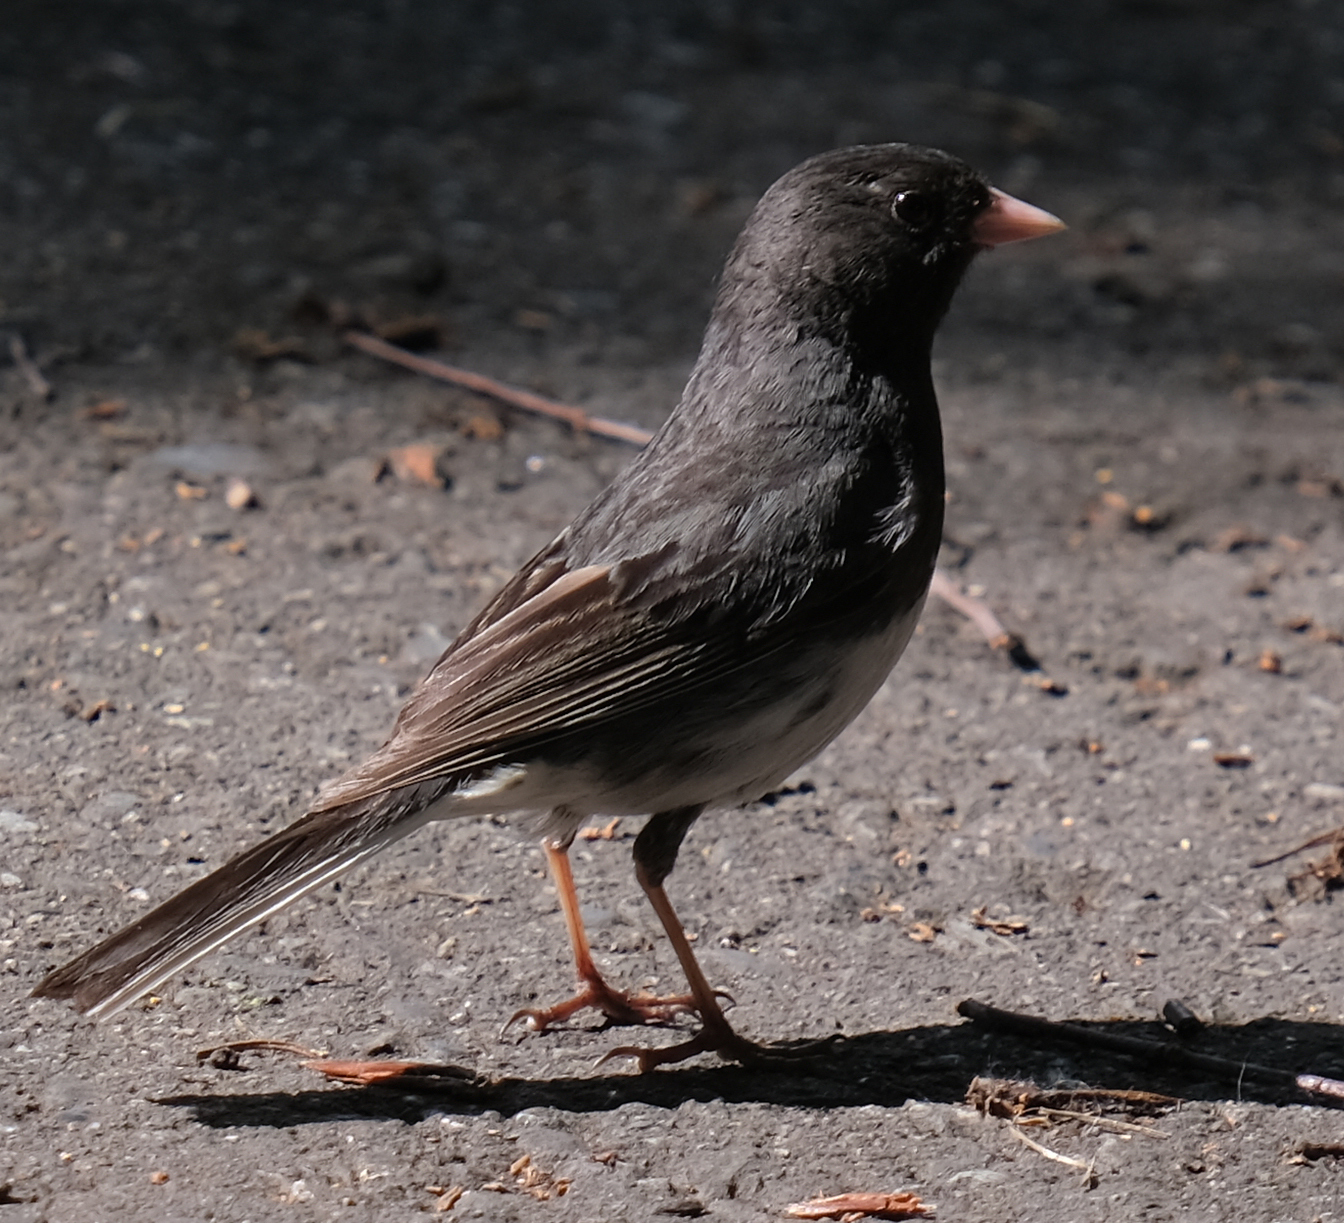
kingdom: Animalia
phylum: Chordata
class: Aves
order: Passeriformes
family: Passerellidae
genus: Junco
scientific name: Junco hyemalis
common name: Dark-eyed junco
